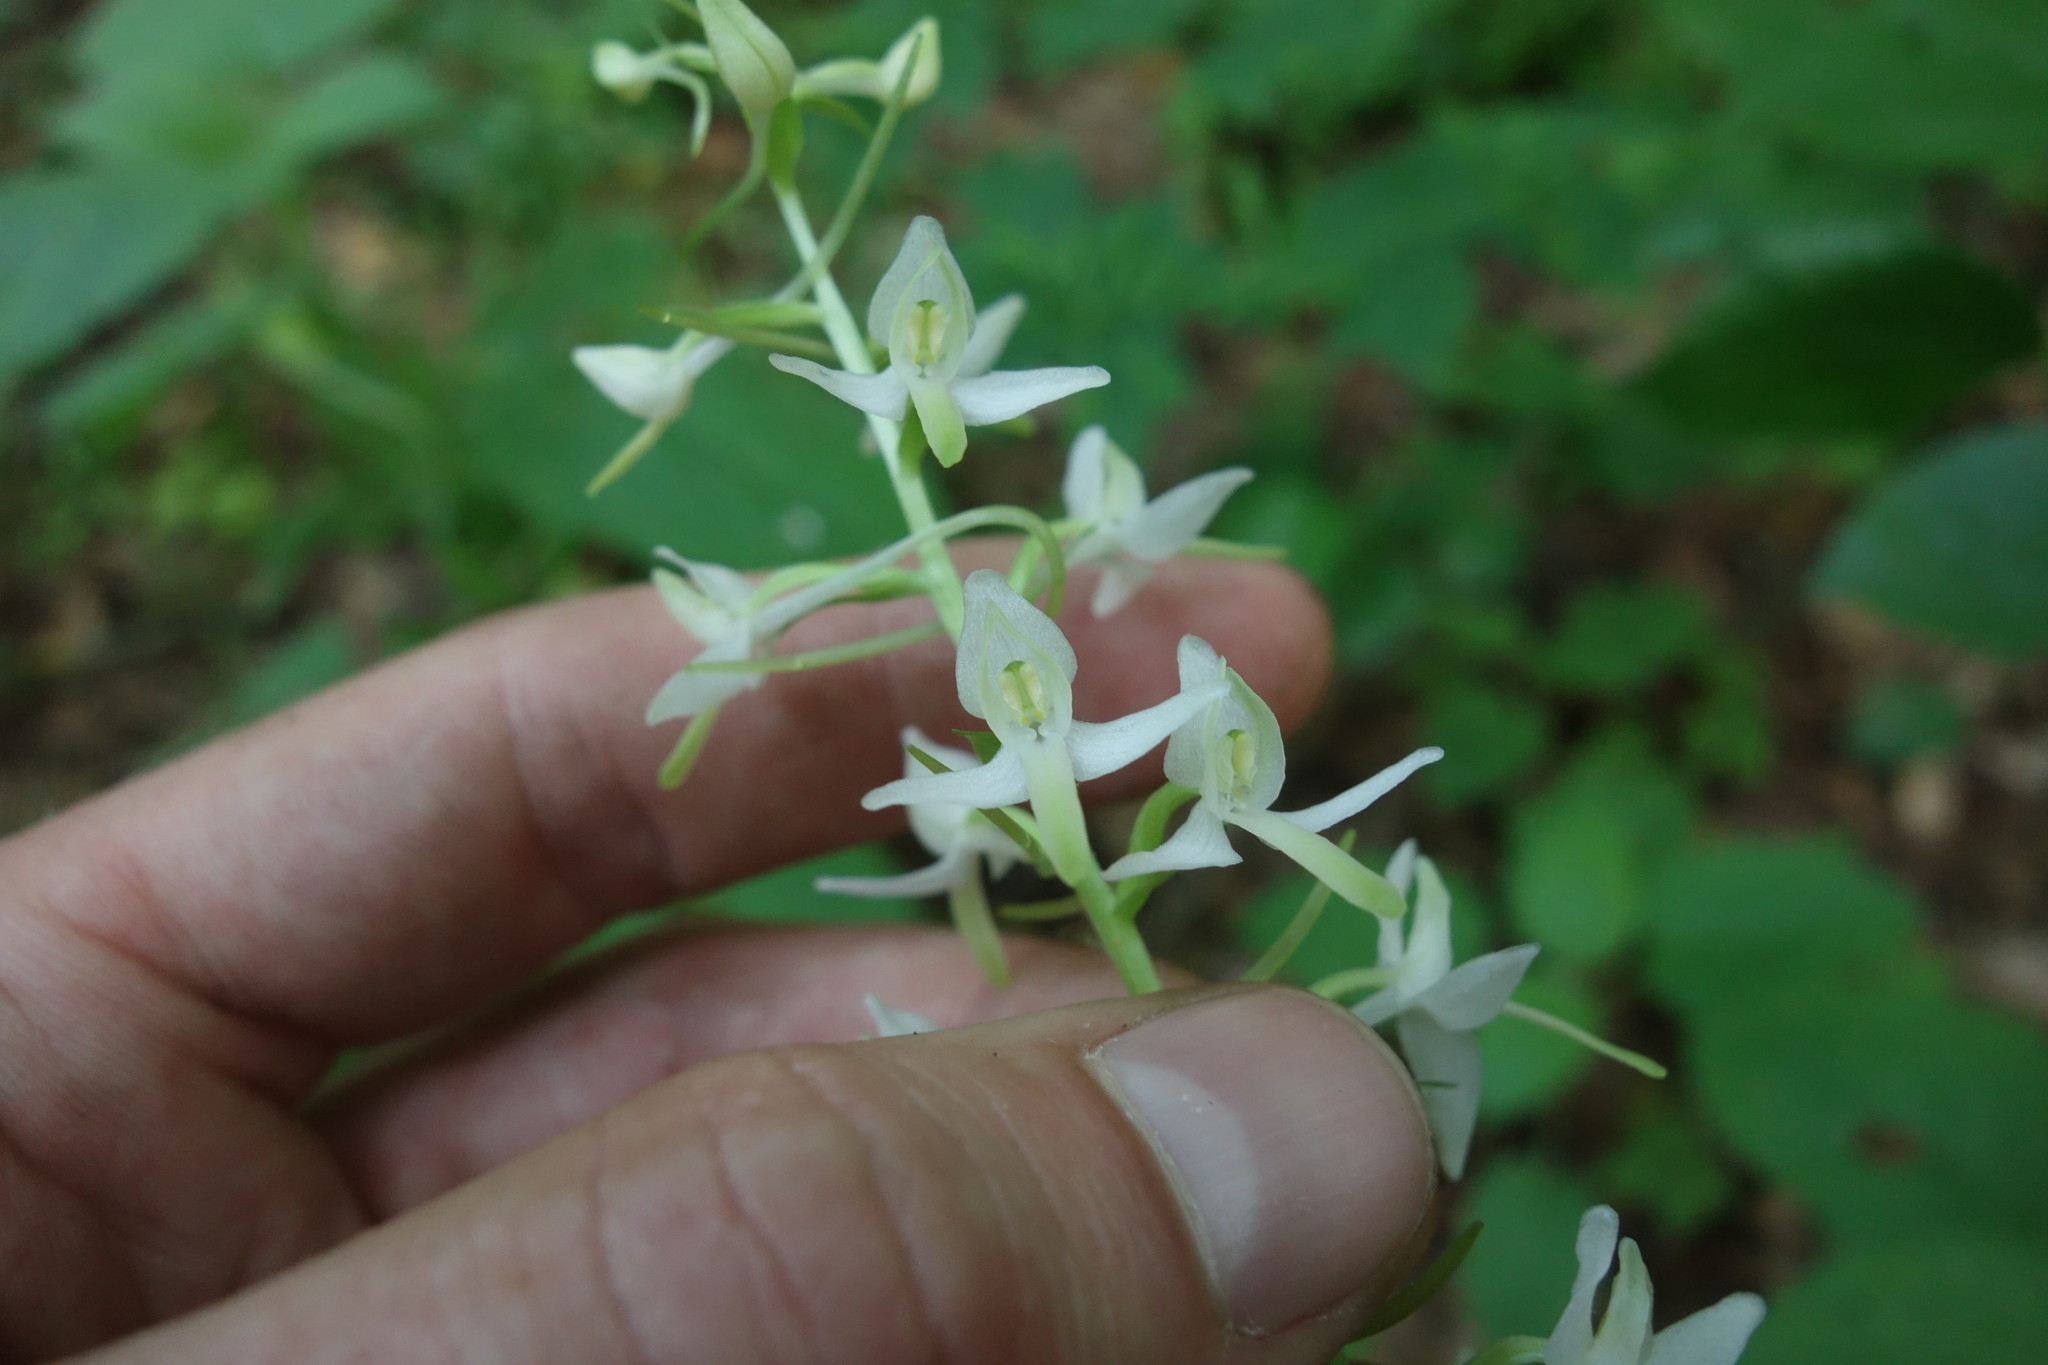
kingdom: Plantae
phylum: Tracheophyta
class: Liliopsida
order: Asparagales
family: Orchidaceae
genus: Platanthera
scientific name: Platanthera bifolia
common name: Lesser butterfly-orchid
